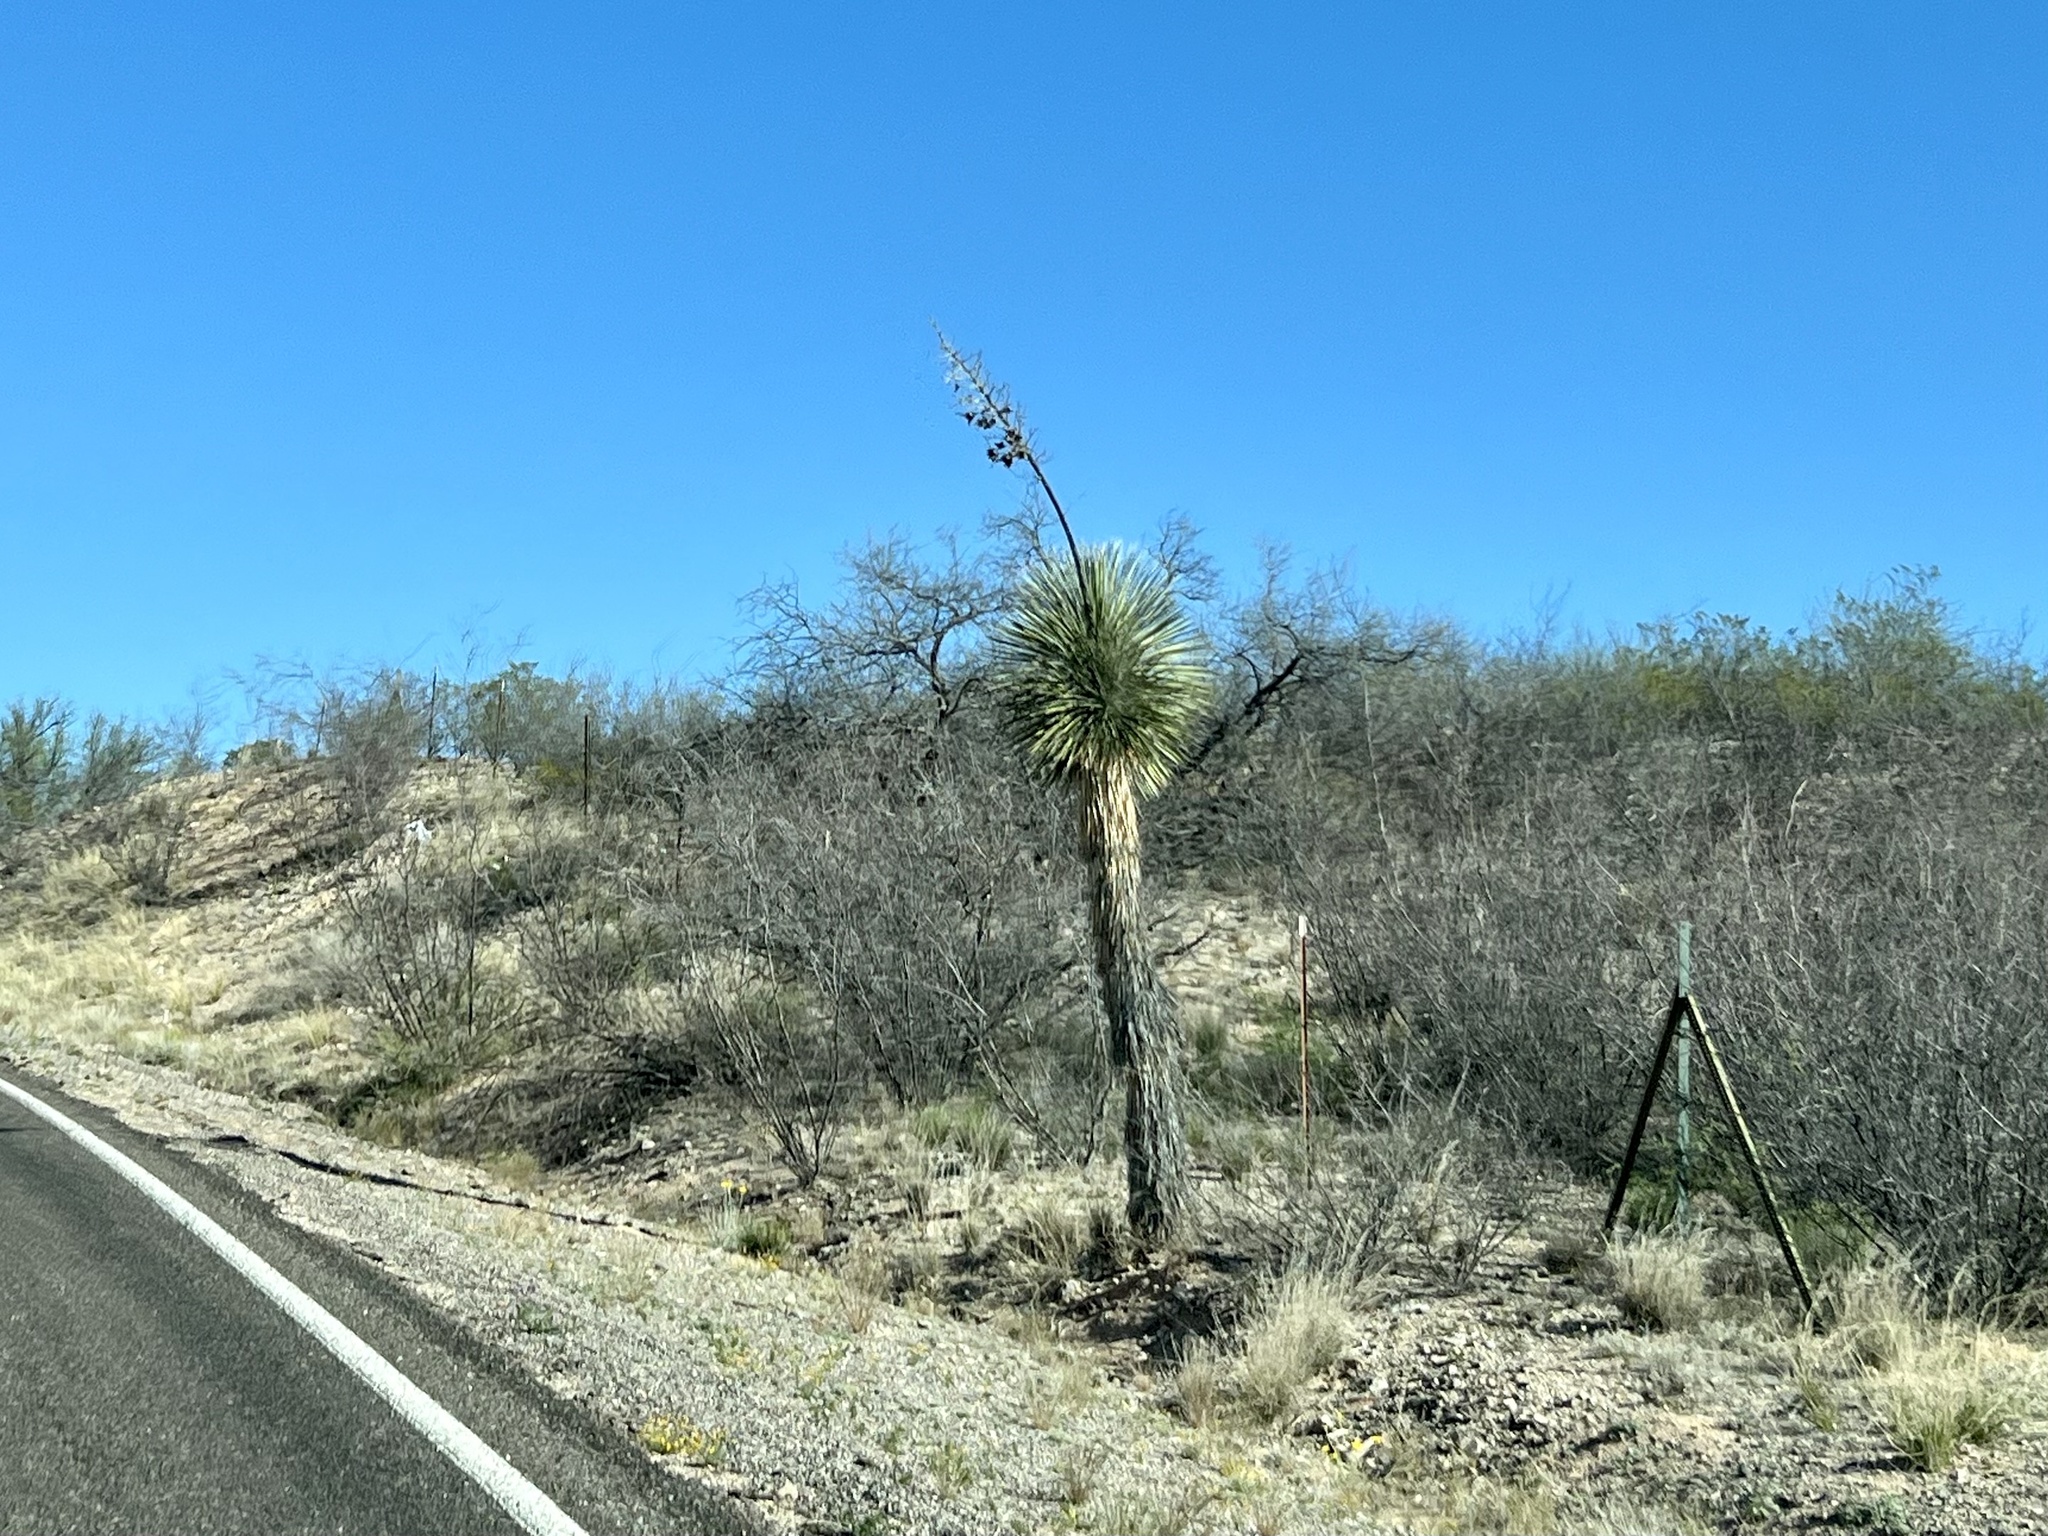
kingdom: Plantae
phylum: Tracheophyta
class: Liliopsida
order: Asparagales
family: Asparagaceae
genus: Yucca
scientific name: Yucca elata
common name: Palmella
